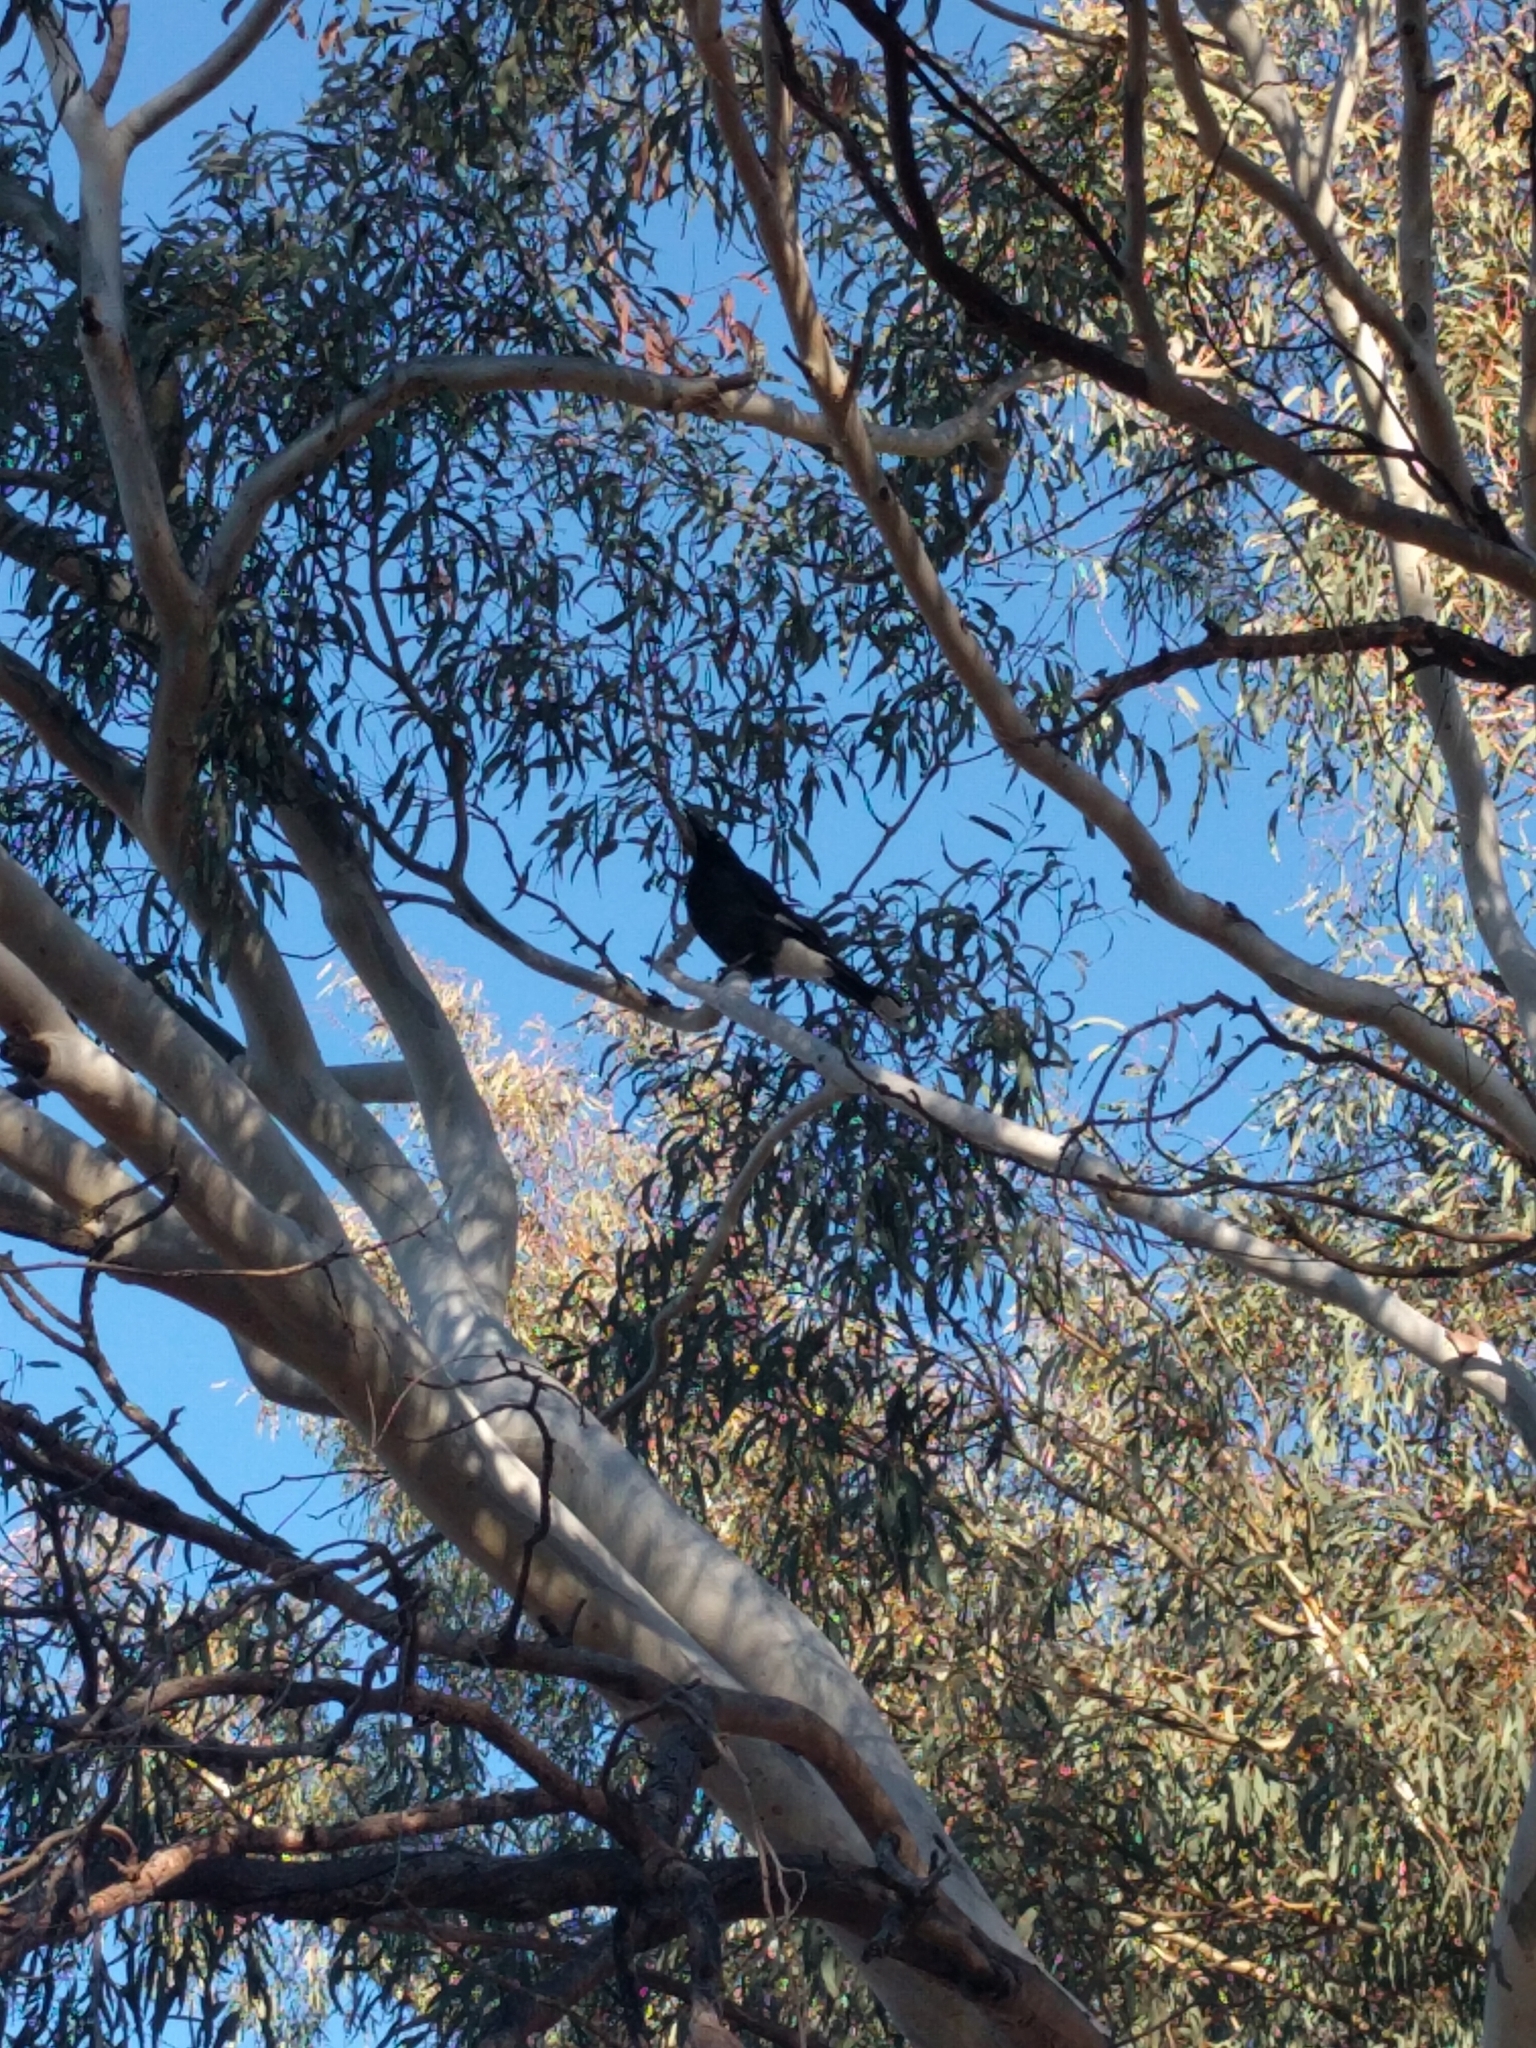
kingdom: Animalia
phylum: Chordata
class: Aves
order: Passeriformes
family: Cracticidae
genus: Strepera
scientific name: Strepera graculina
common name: Pied currawong
